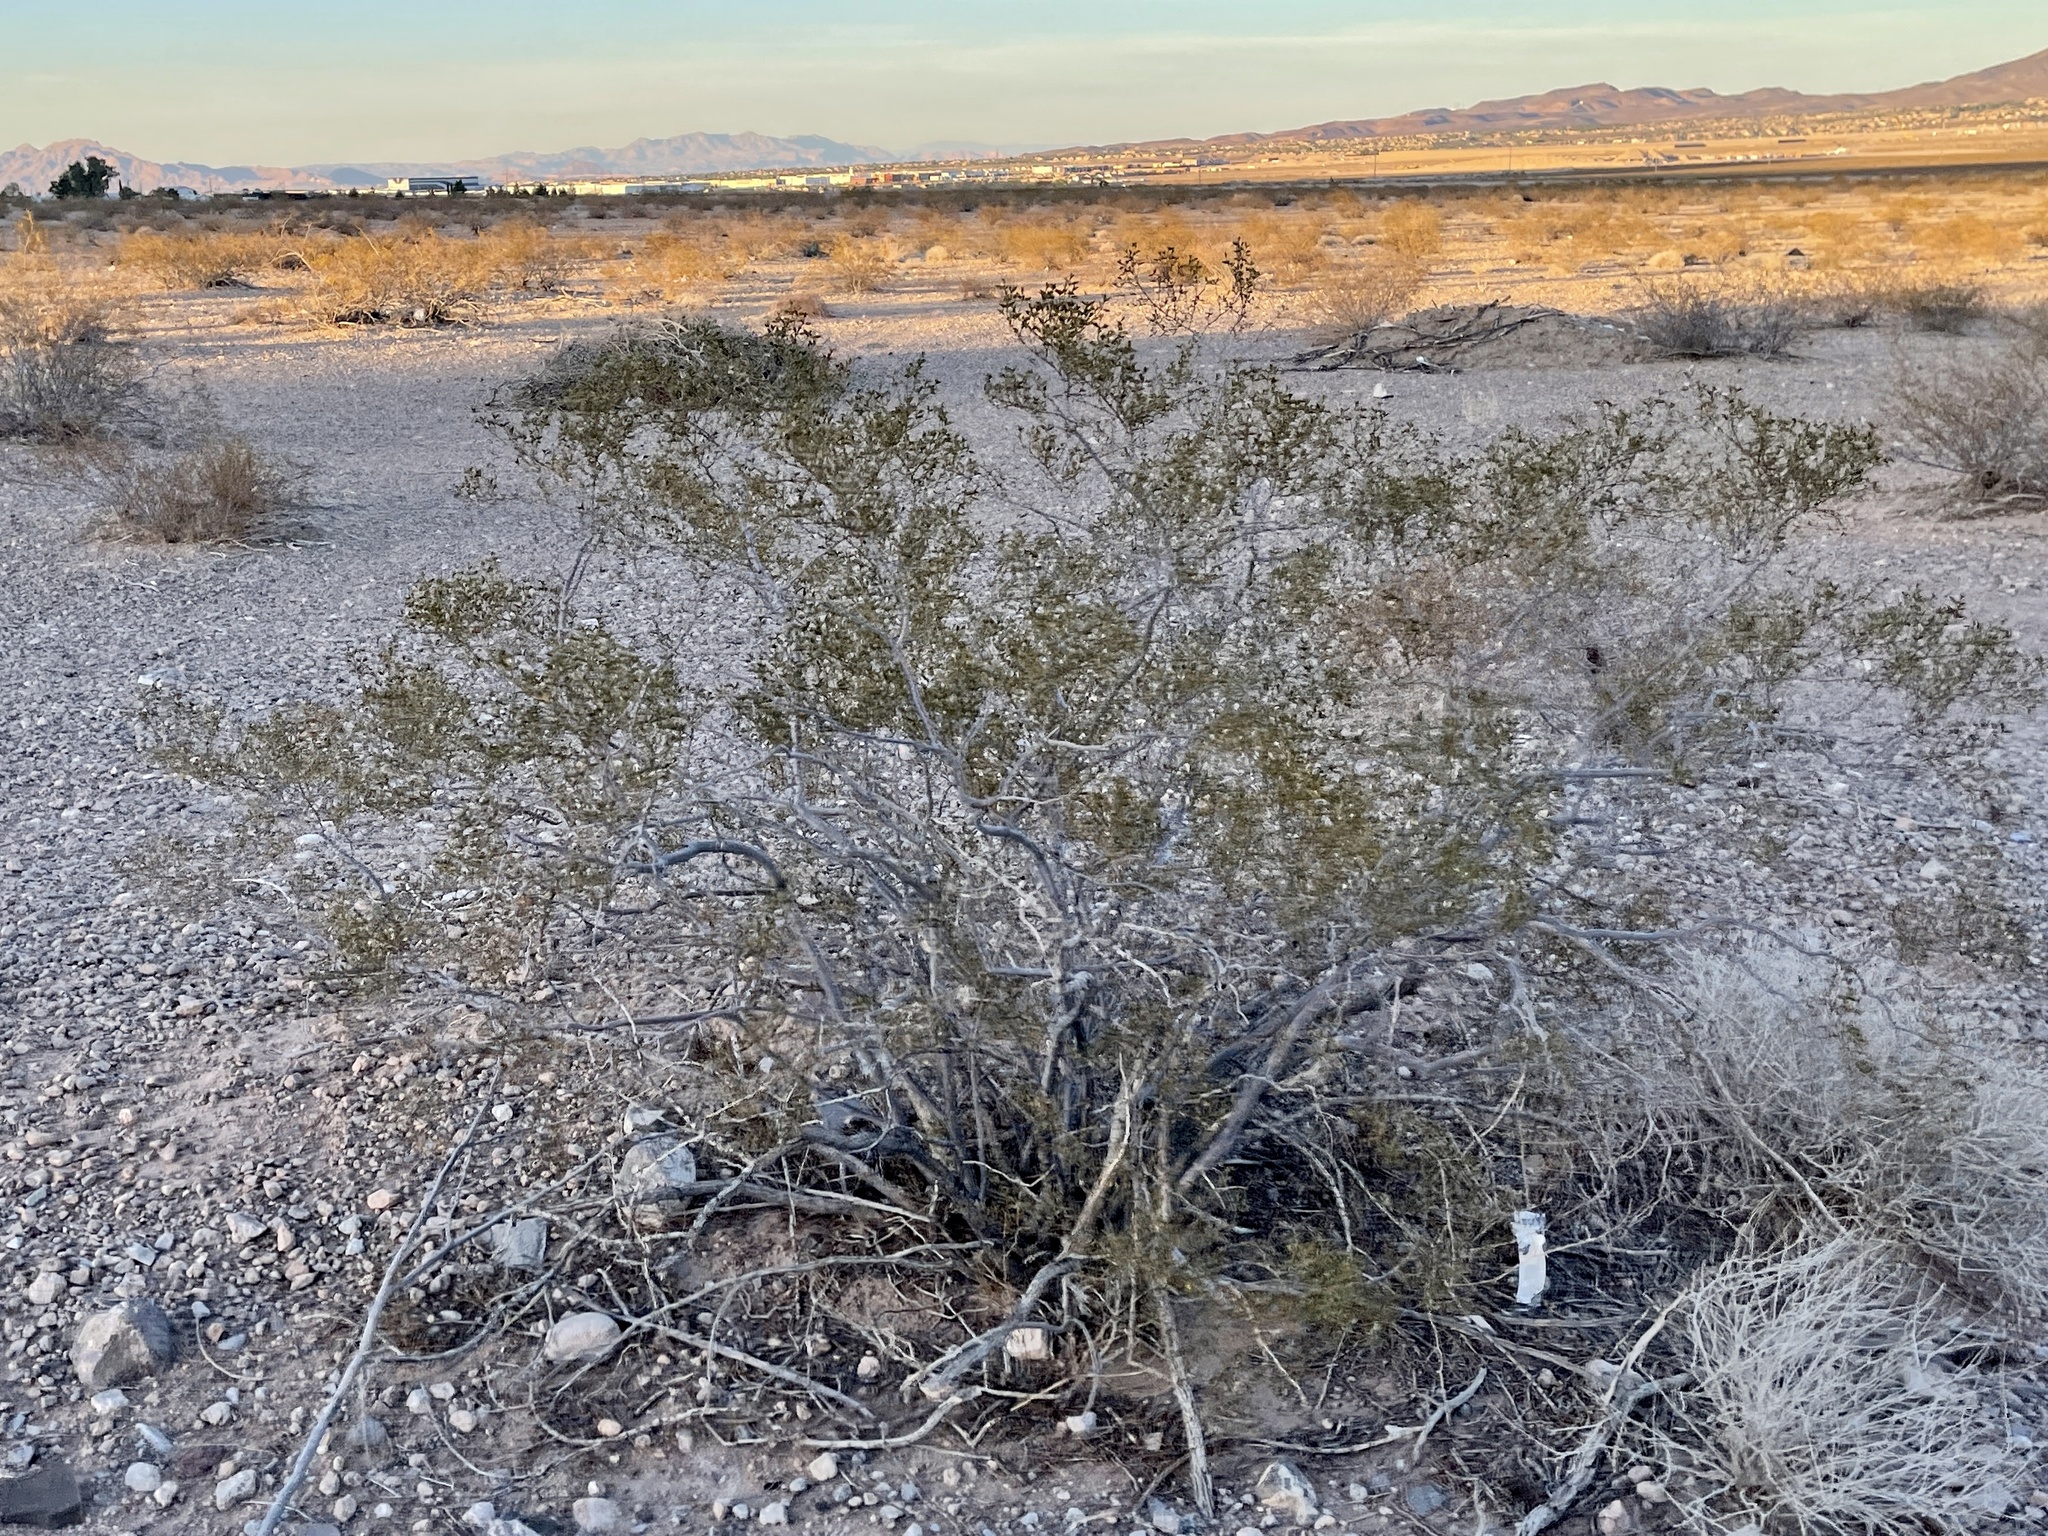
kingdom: Plantae
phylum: Tracheophyta
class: Magnoliopsida
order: Zygophyllales
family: Zygophyllaceae
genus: Larrea
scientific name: Larrea tridentata
